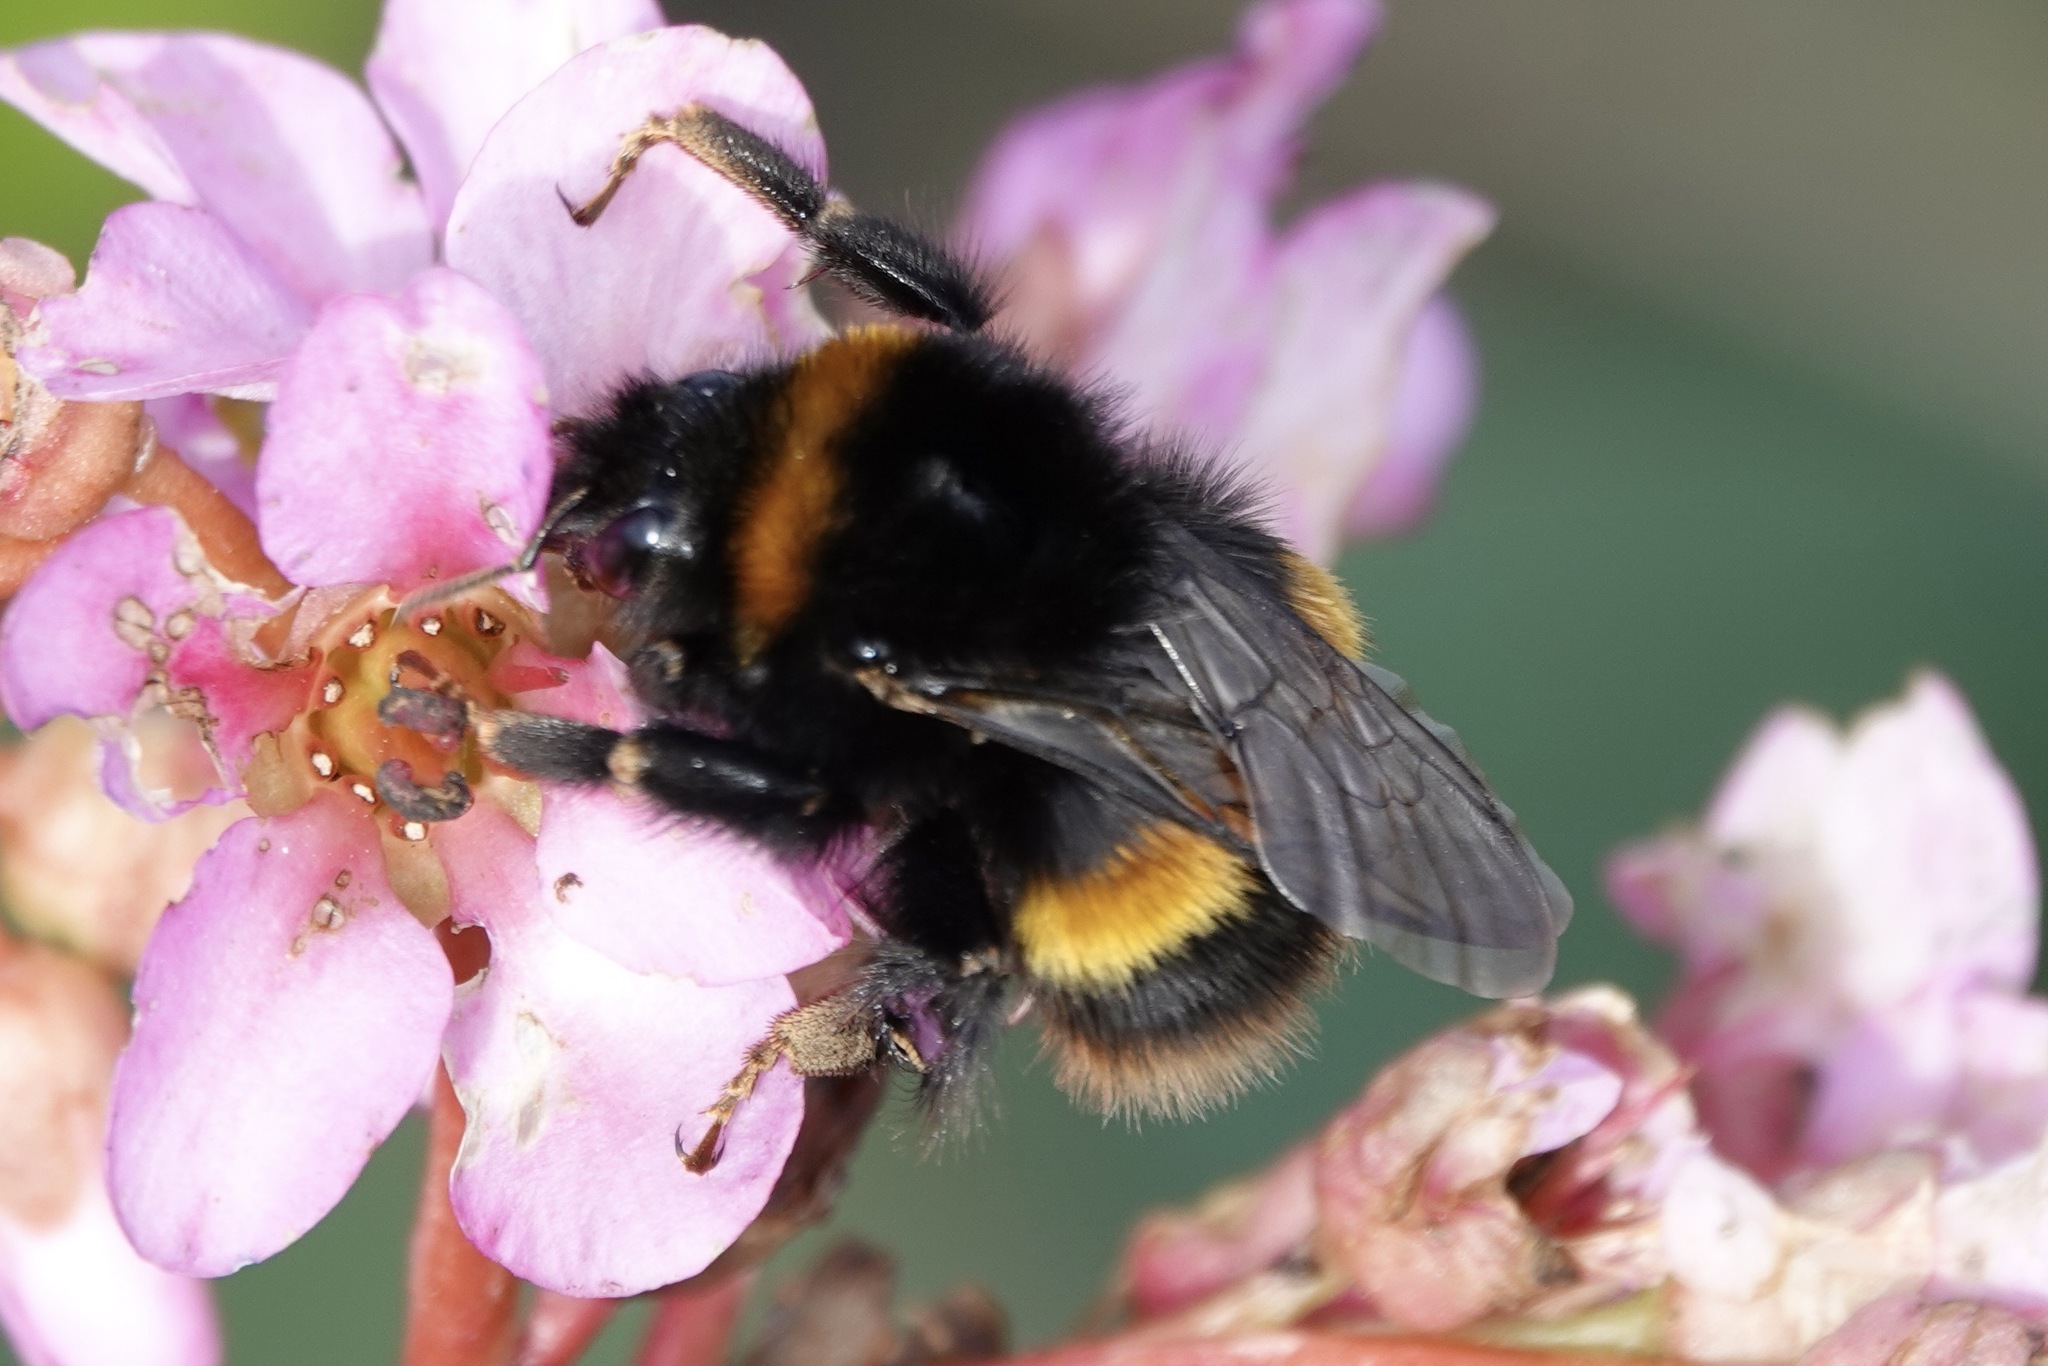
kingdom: Animalia
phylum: Arthropoda
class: Insecta
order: Hymenoptera
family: Apidae
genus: Bombus
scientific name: Bombus terrestris
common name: Buff-tailed bumblebee
